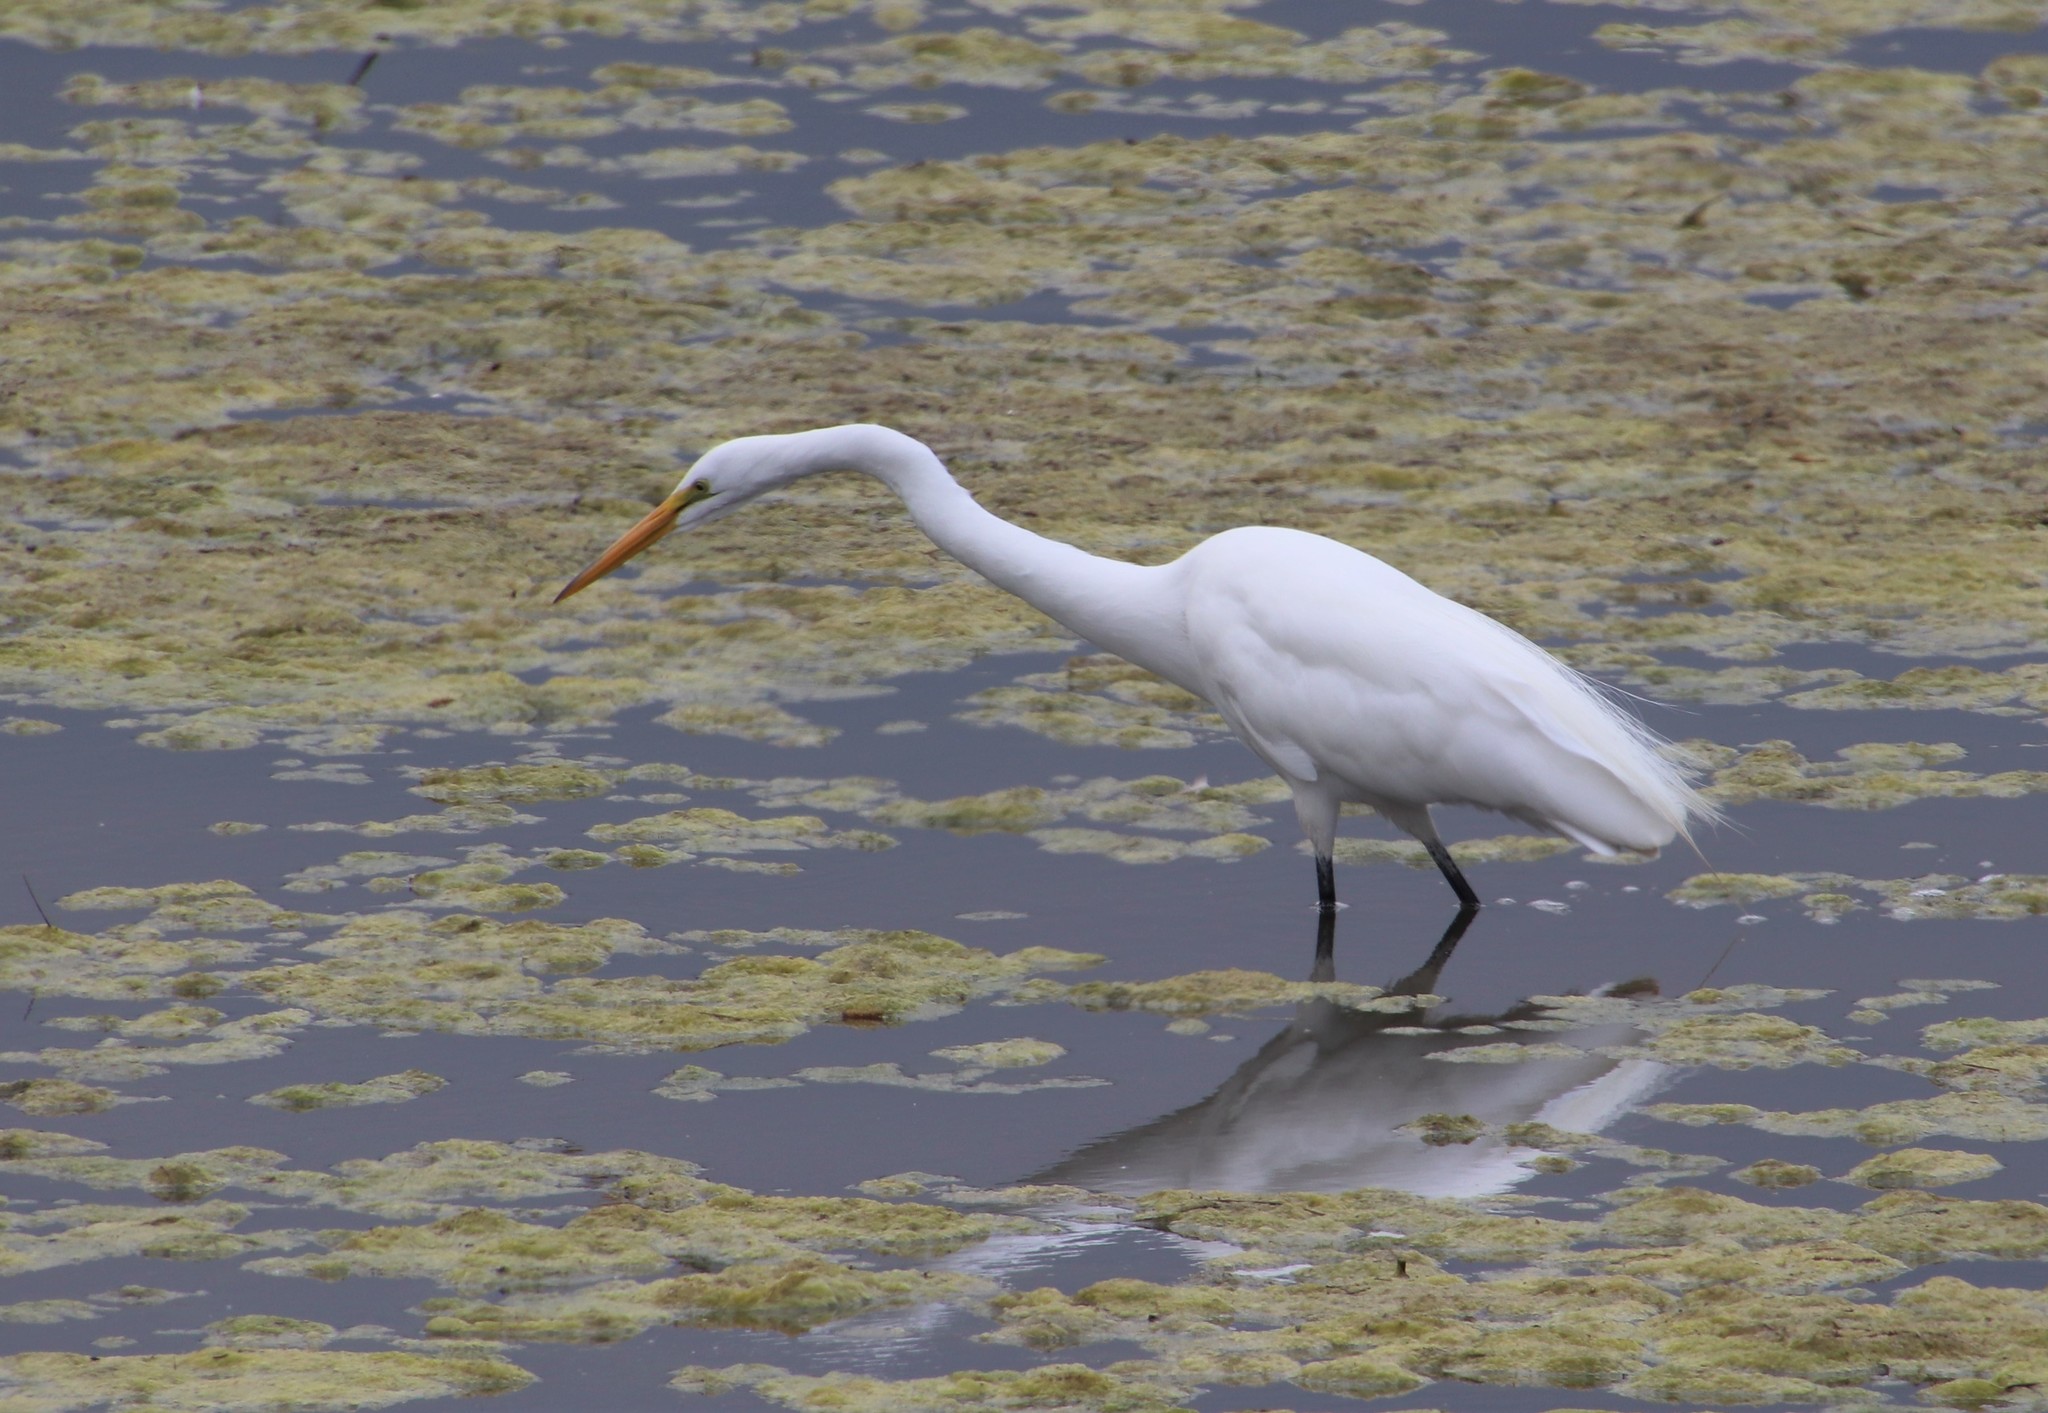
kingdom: Animalia
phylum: Chordata
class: Aves
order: Pelecaniformes
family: Ardeidae
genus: Ardea
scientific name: Ardea alba
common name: Great egret
